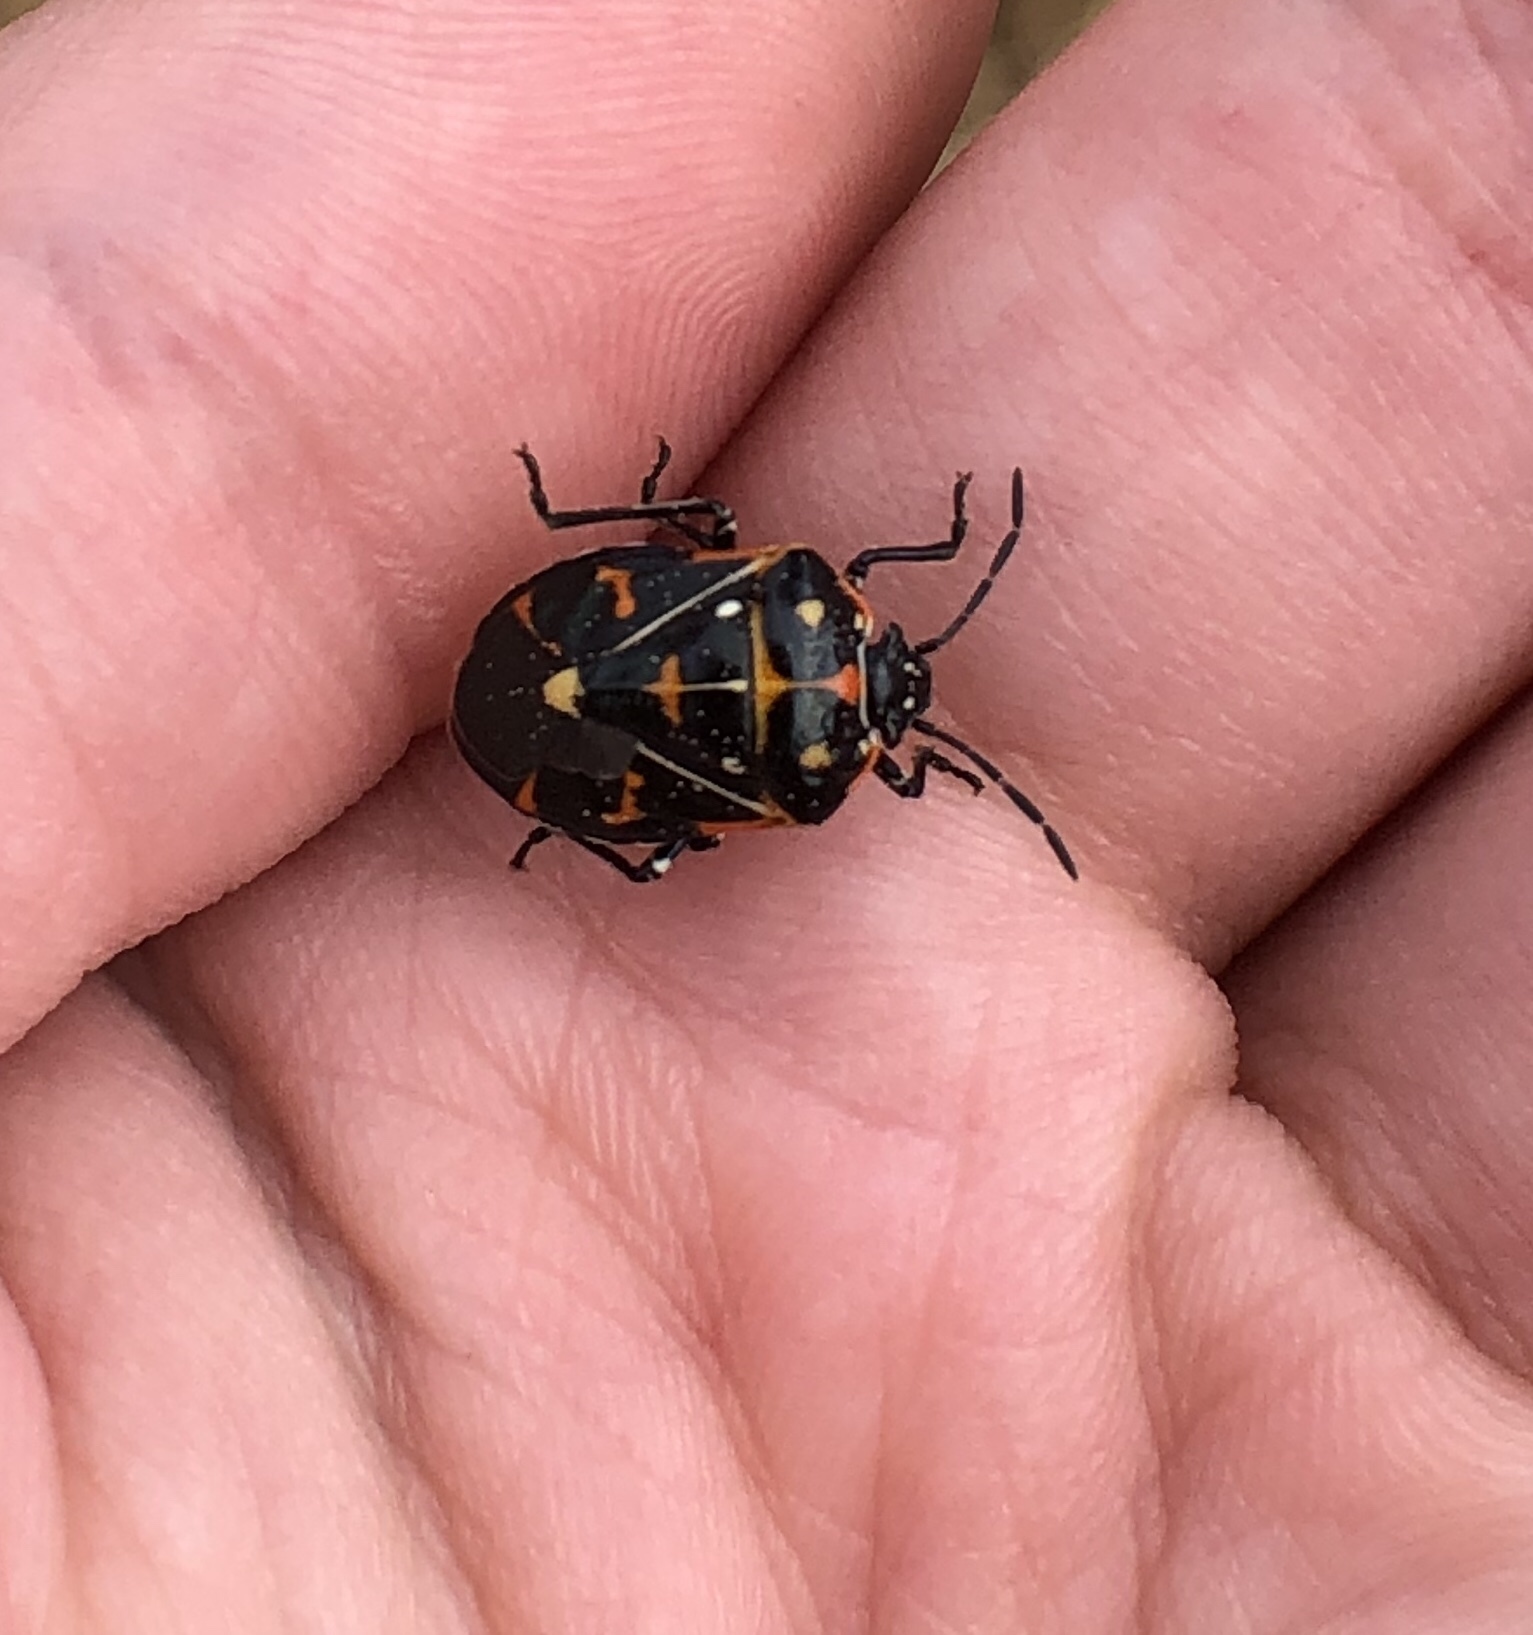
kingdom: Animalia
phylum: Arthropoda
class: Insecta
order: Hemiptera
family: Pentatomidae
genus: Murgantia
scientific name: Murgantia histrionica
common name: Harlequin bug
